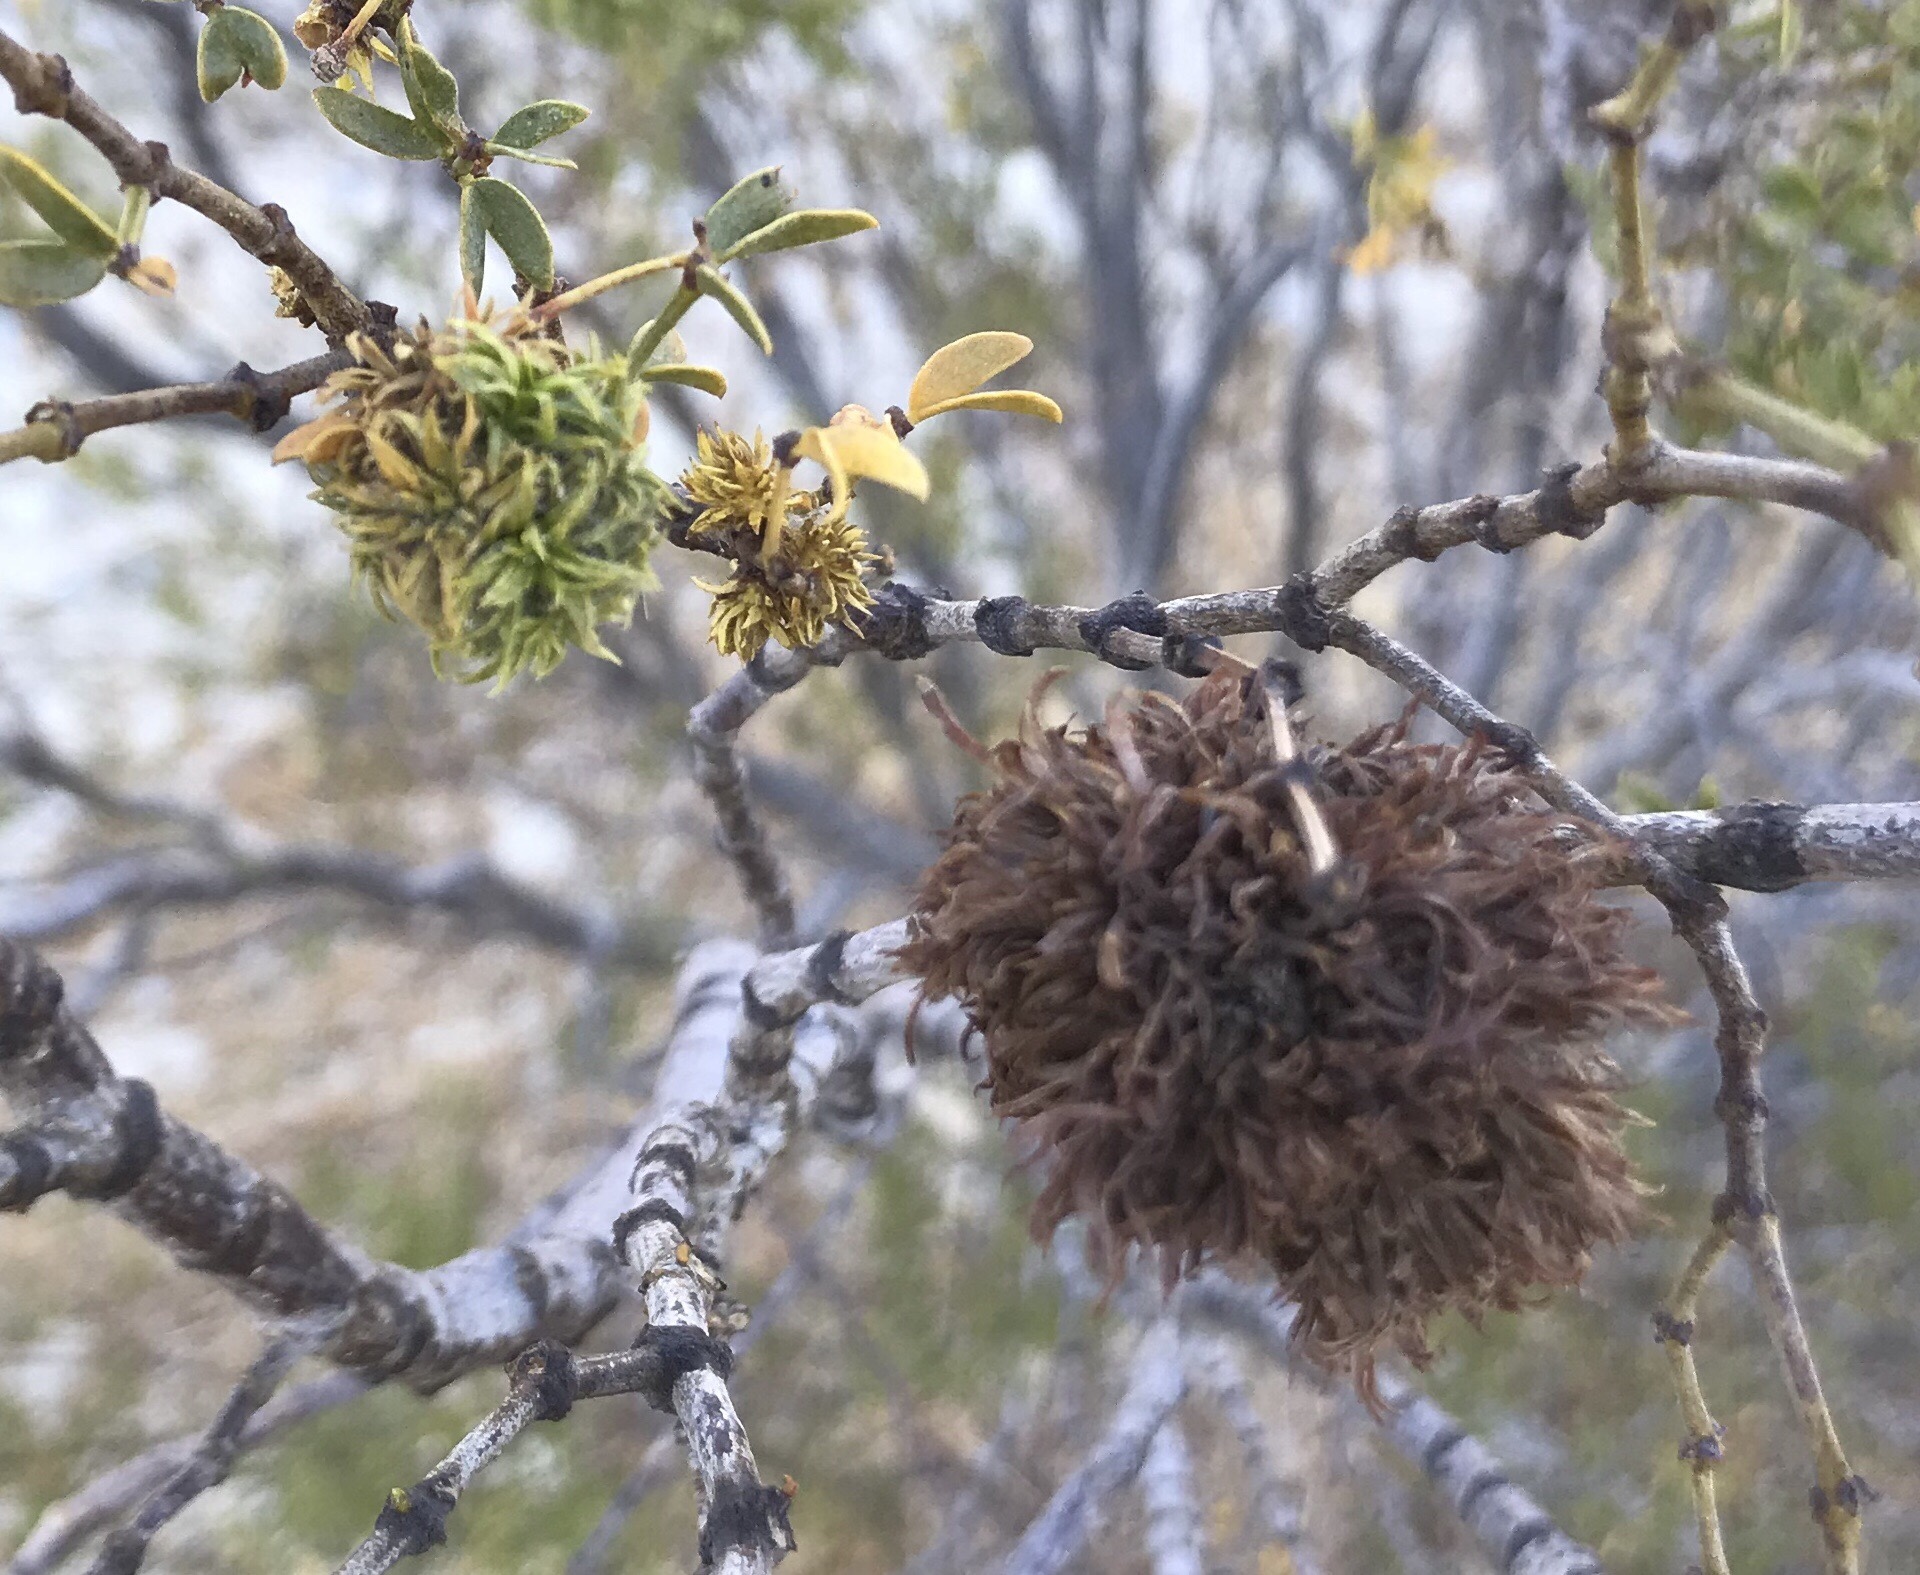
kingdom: Animalia
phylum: Arthropoda
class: Insecta
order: Diptera
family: Cecidomyiidae
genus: Asphondylia
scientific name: Asphondylia auripila
